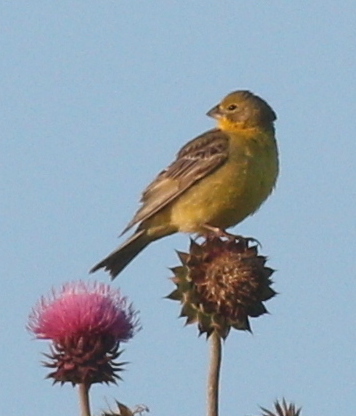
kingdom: Animalia
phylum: Chordata
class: Aves
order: Passeriformes
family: Thraupidae
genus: Sicalis
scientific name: Sicalis luteola
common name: Grassland yellow-finch
